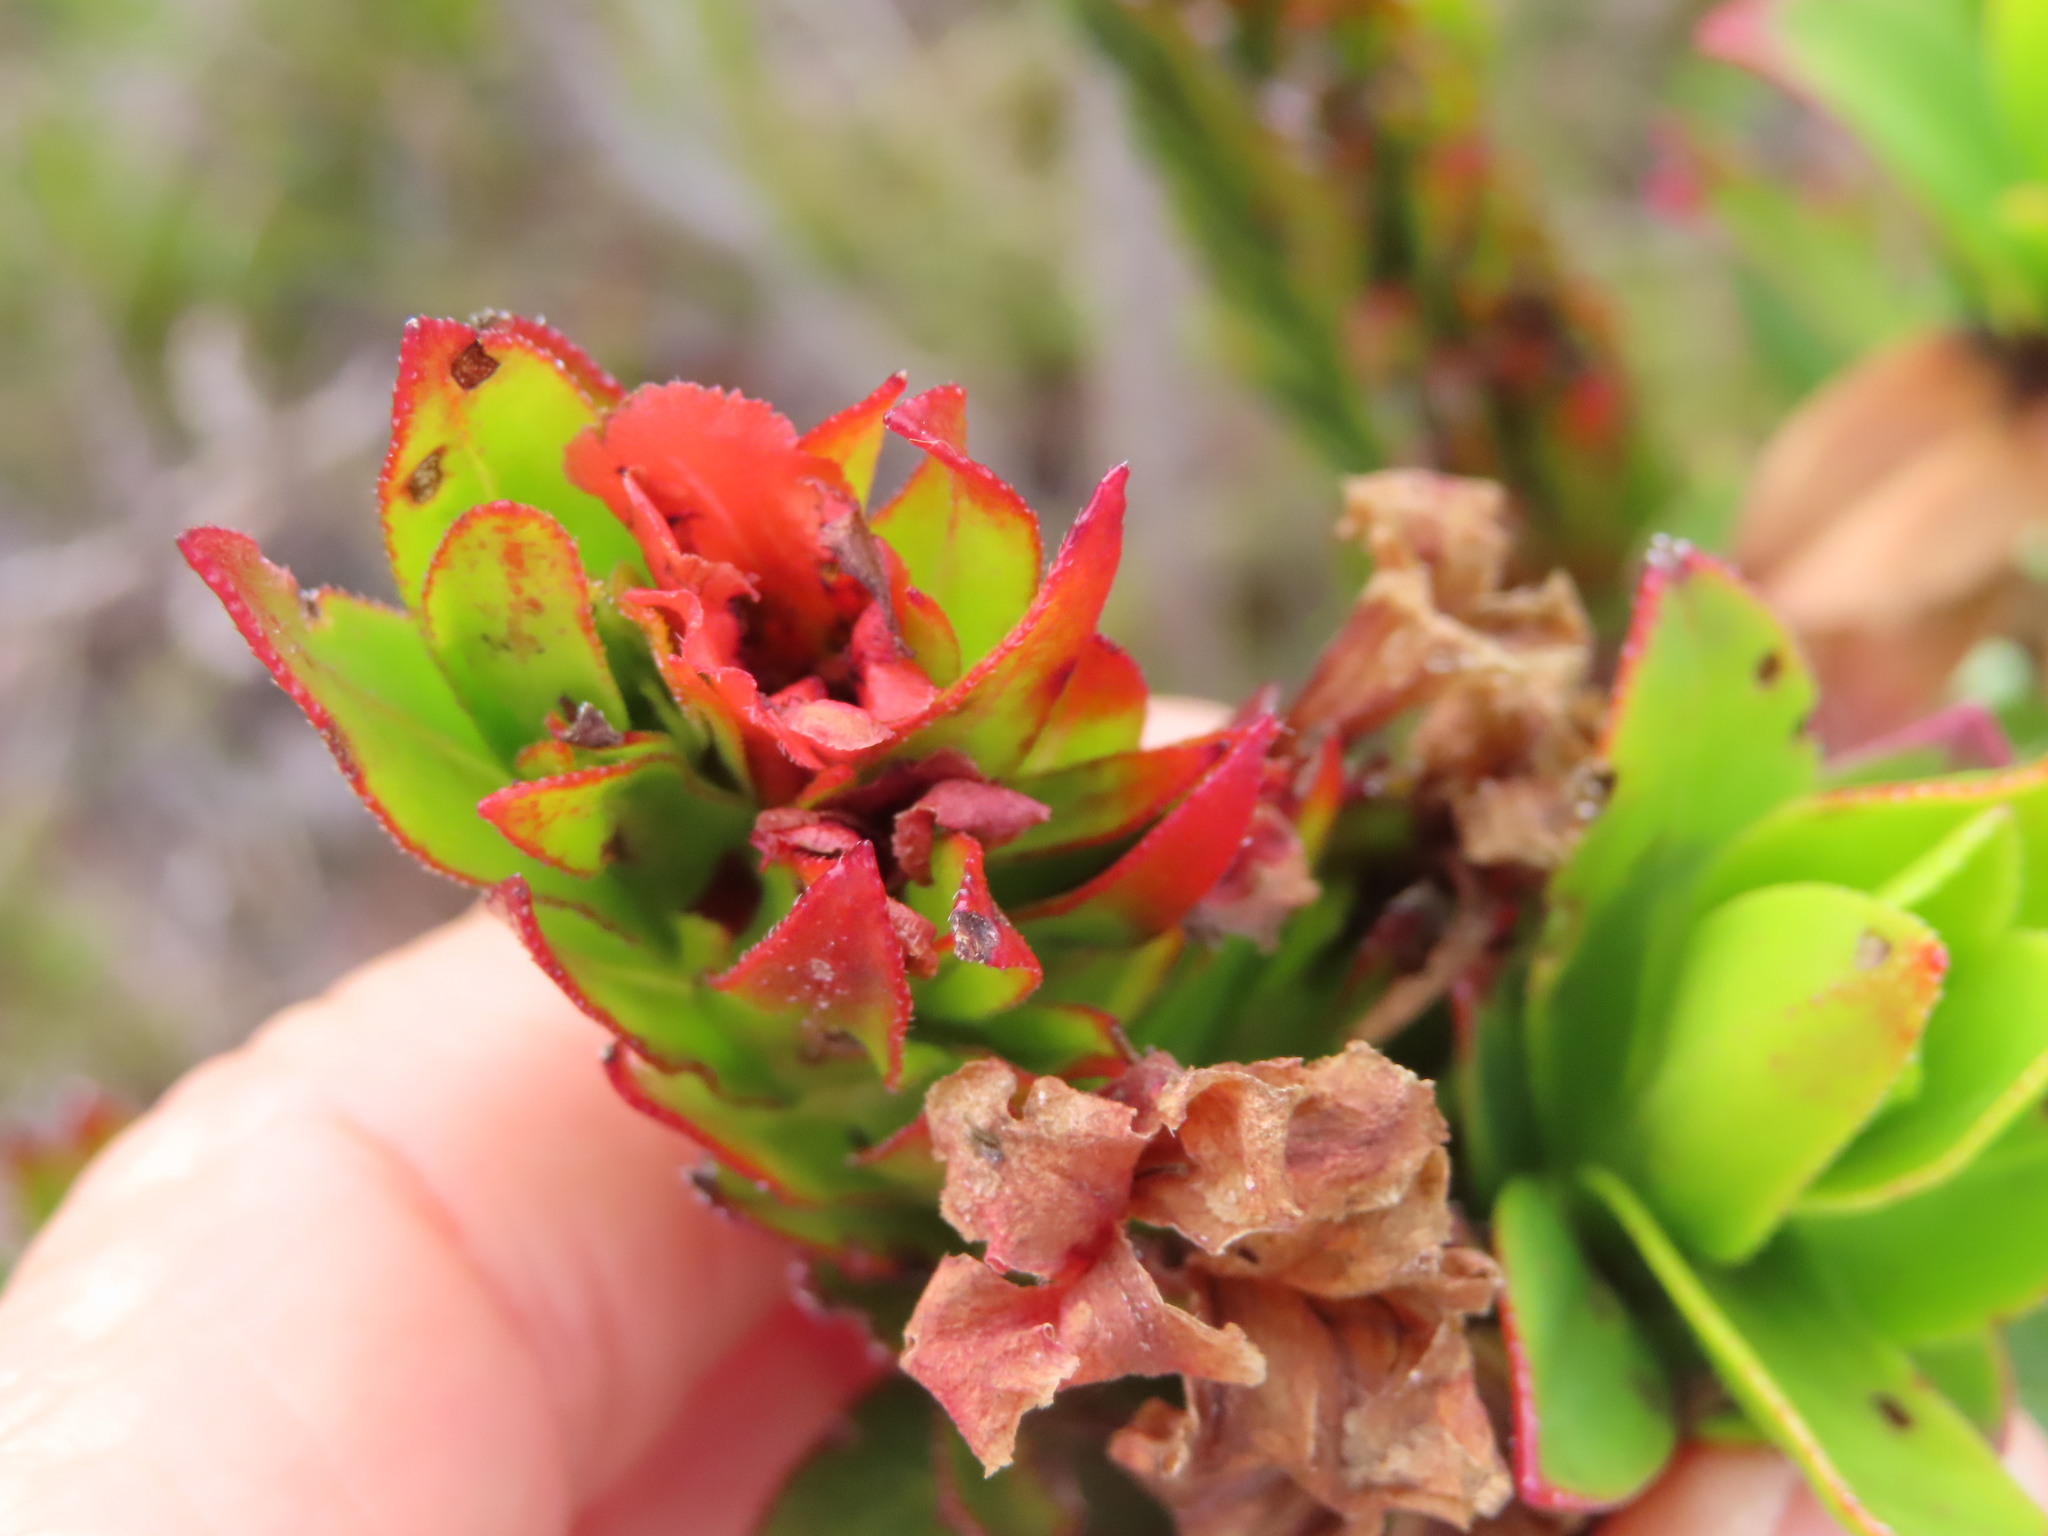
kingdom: Plantae
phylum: Tracheophyta
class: Magnoliopsida
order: Boraginales
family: Boraginaceae
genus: Lobostemon
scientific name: Lobostemon sanguineus
